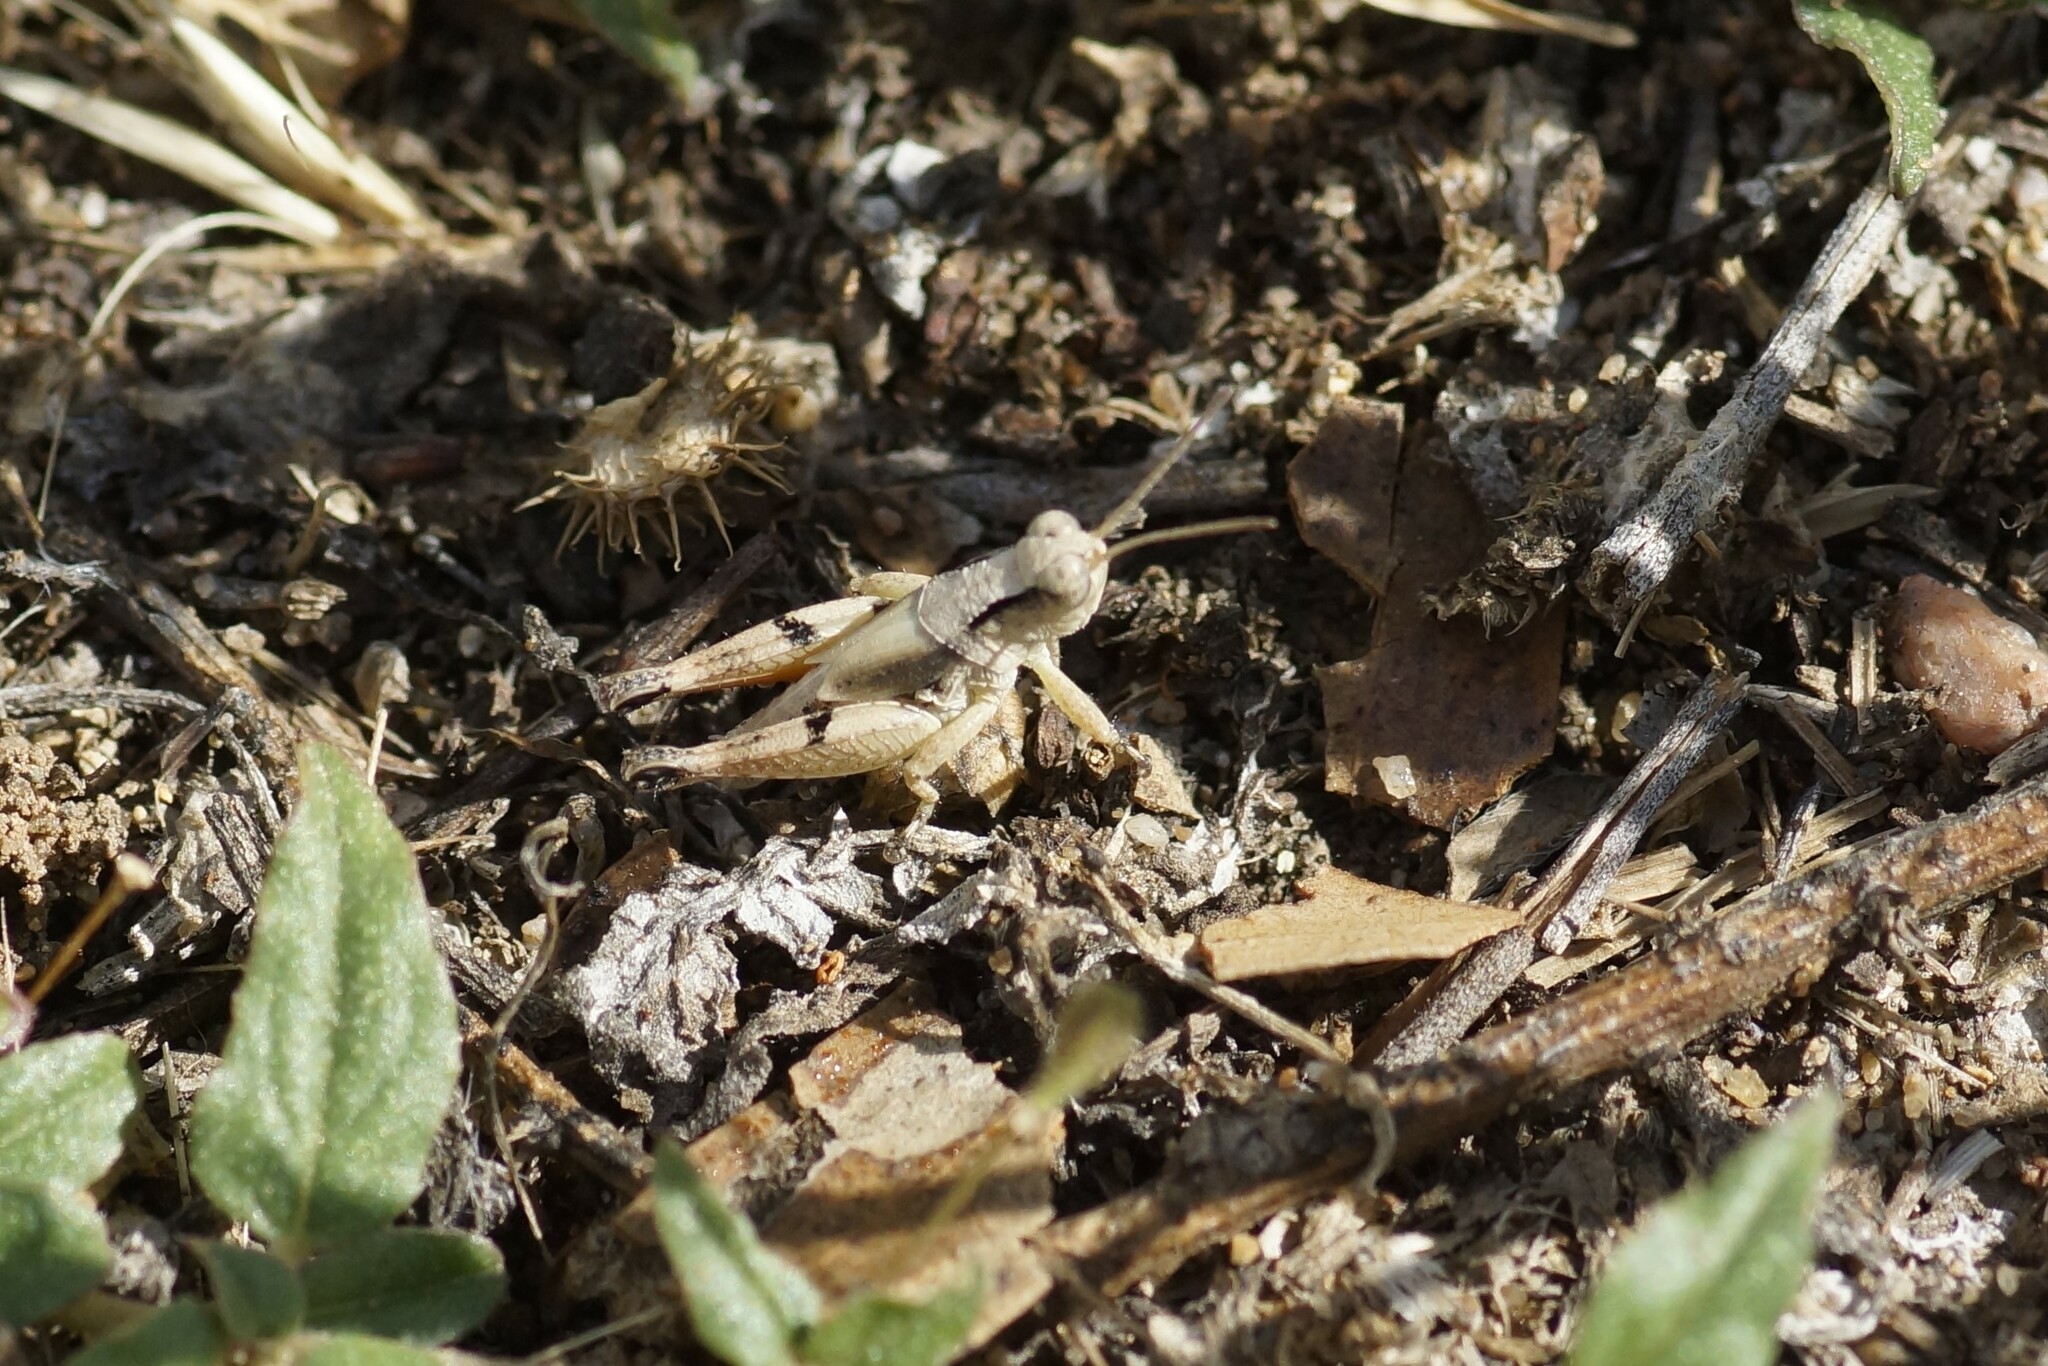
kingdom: Animalia
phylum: Arthropoda
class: Insecta
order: Orthoptera
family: Acrididae
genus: Phaulacridium
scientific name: Phaulacridium vittatum
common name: Wingless grasshopper
